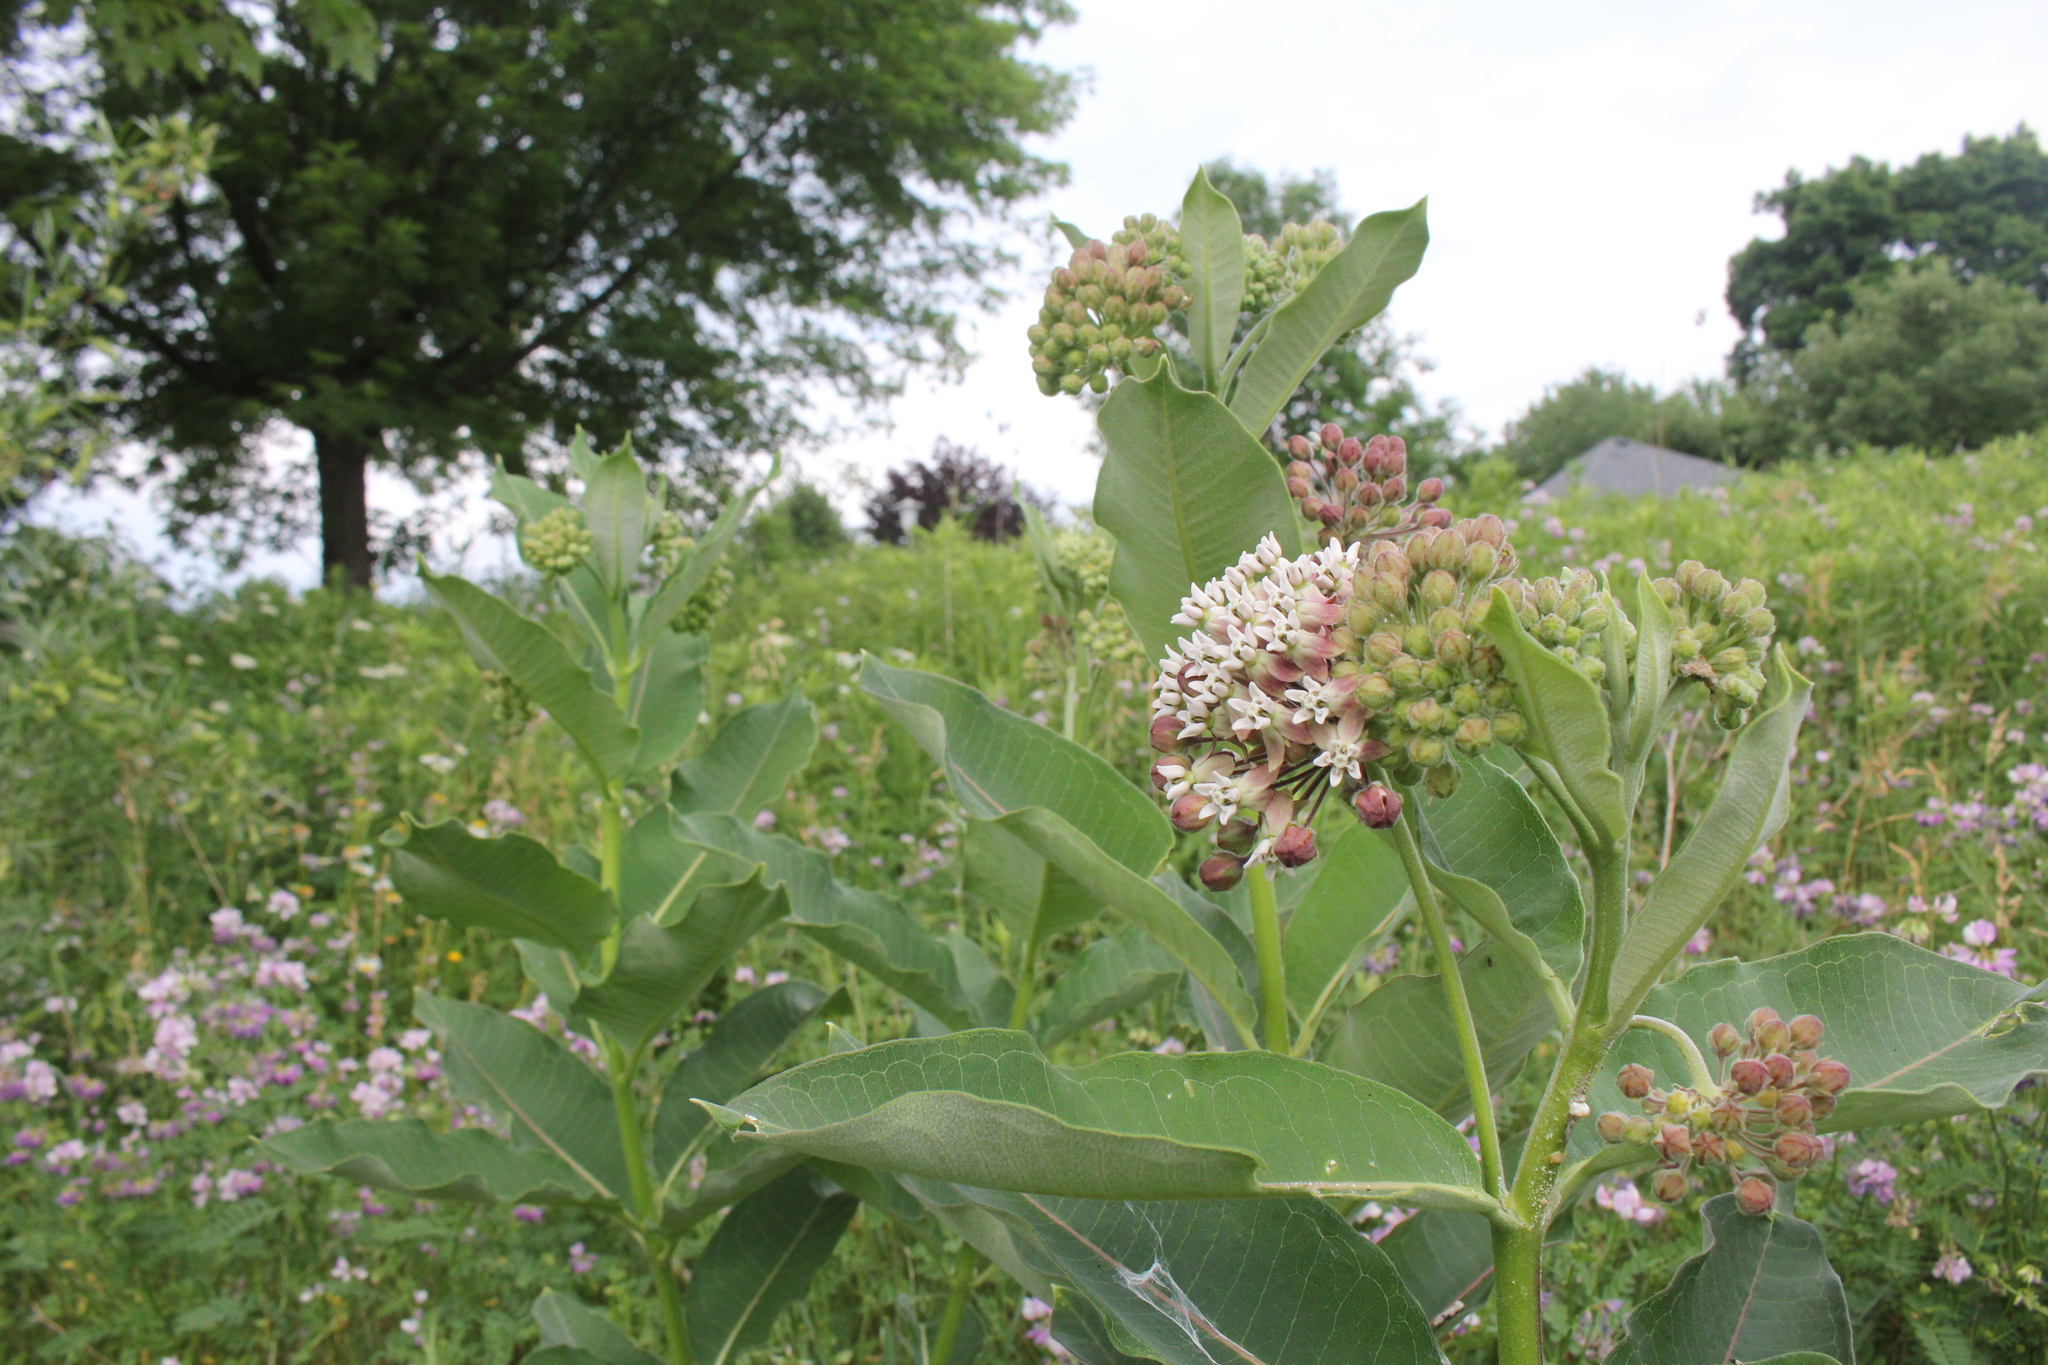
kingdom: Plantae
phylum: Tracheophyta
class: Magnoliopsida
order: Gentianales
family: Apocynaceae
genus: Asclepias
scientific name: Asclepias syriaca
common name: Common milkweed
